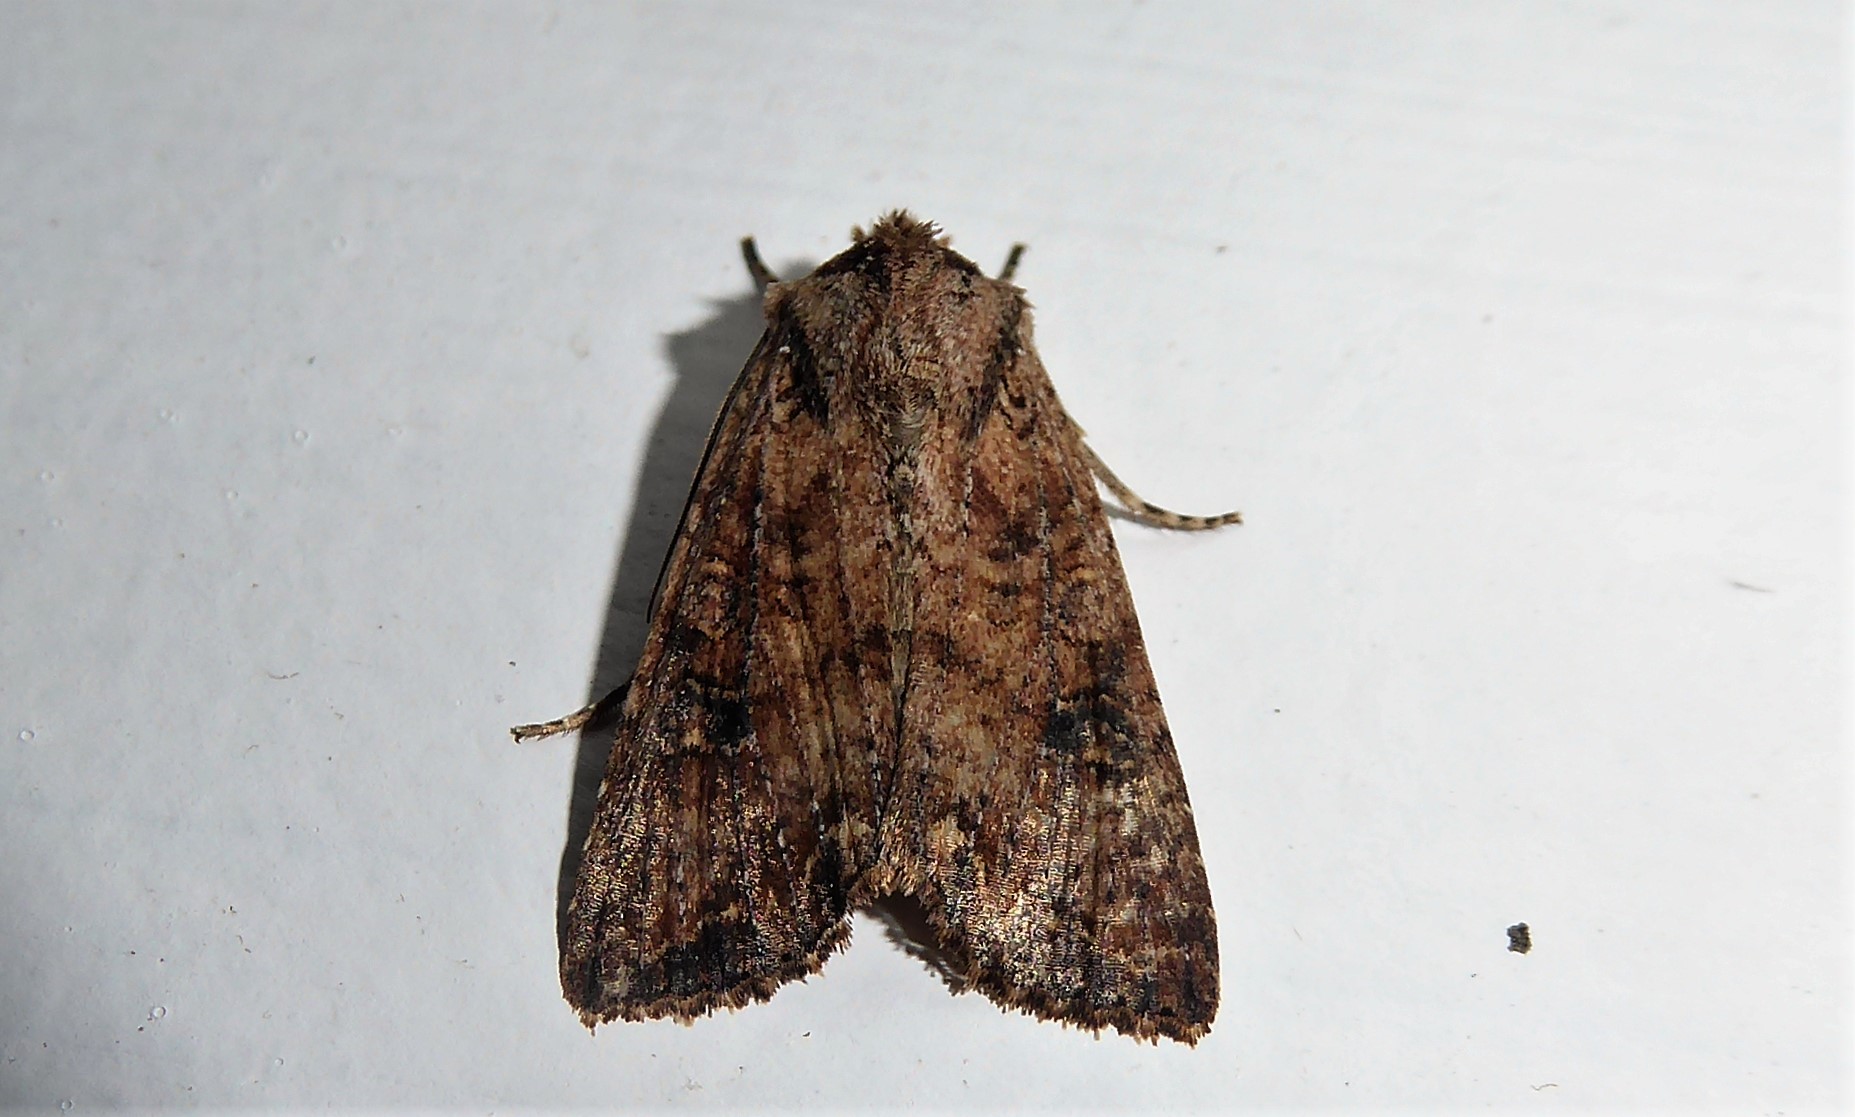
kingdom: Animalia
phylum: Arthropoda
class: Insecta
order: Lepidoptera
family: Noctuidae
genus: Ichneutica
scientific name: Ichneutica morosa
